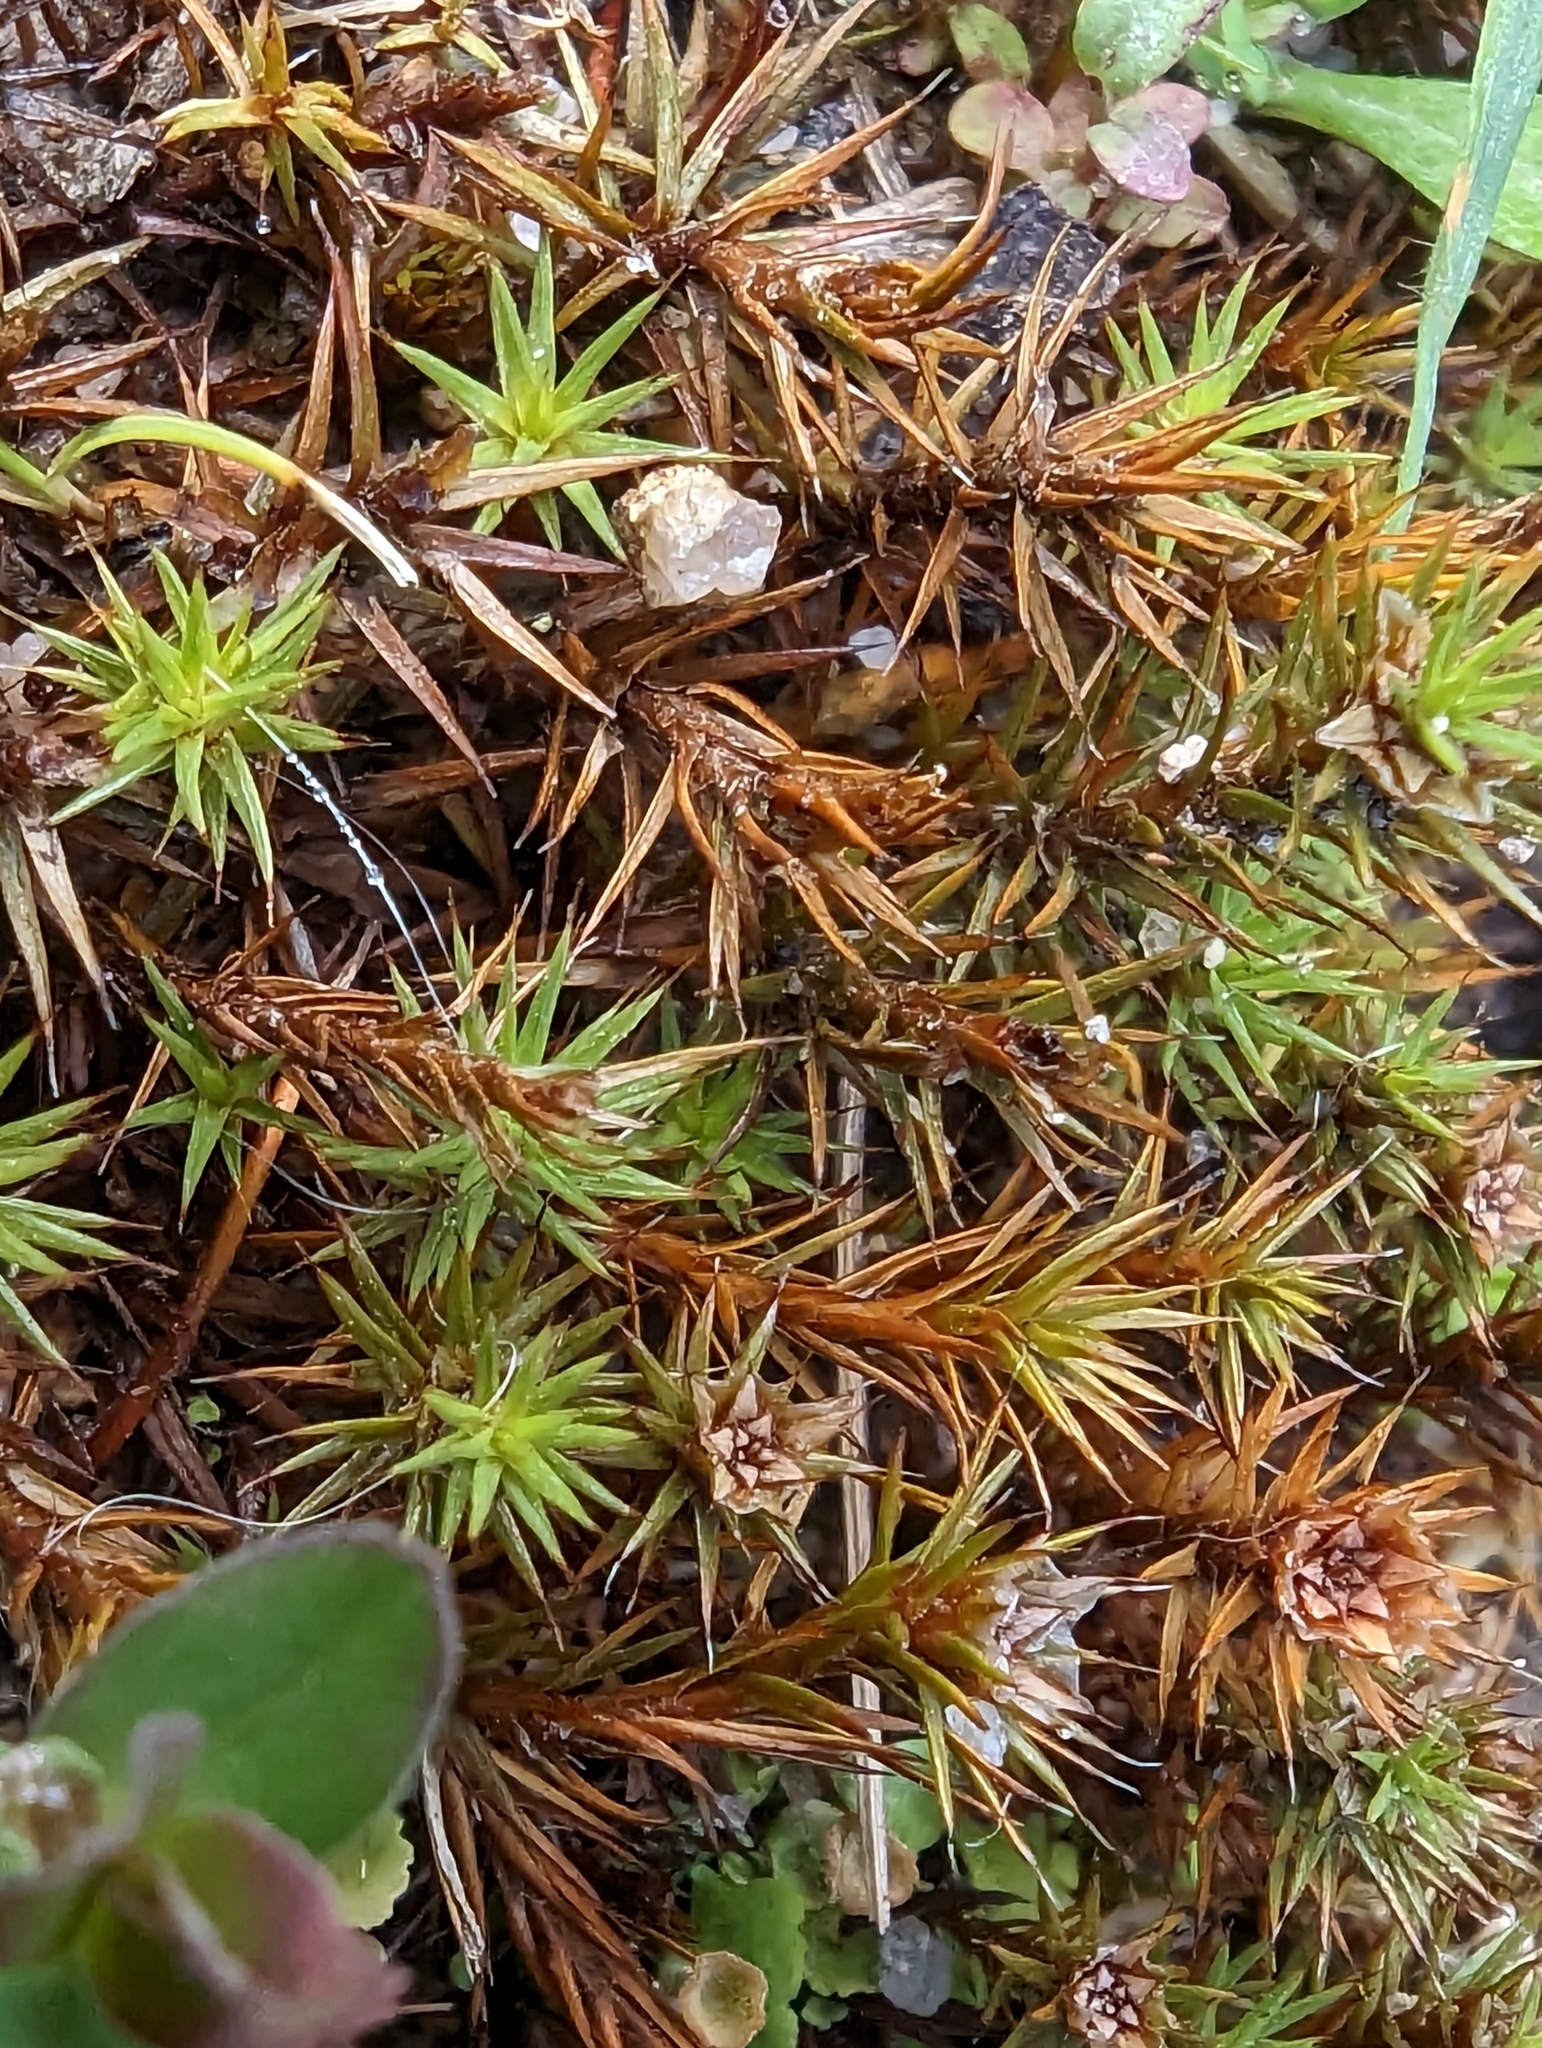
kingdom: Plantae
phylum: Bryophyta
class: Polytrichopsida
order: Polytrichales
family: Polytrichaceae
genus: Polytrichum
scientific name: Polytrichum juniperinum
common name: Juniper haircap moss
